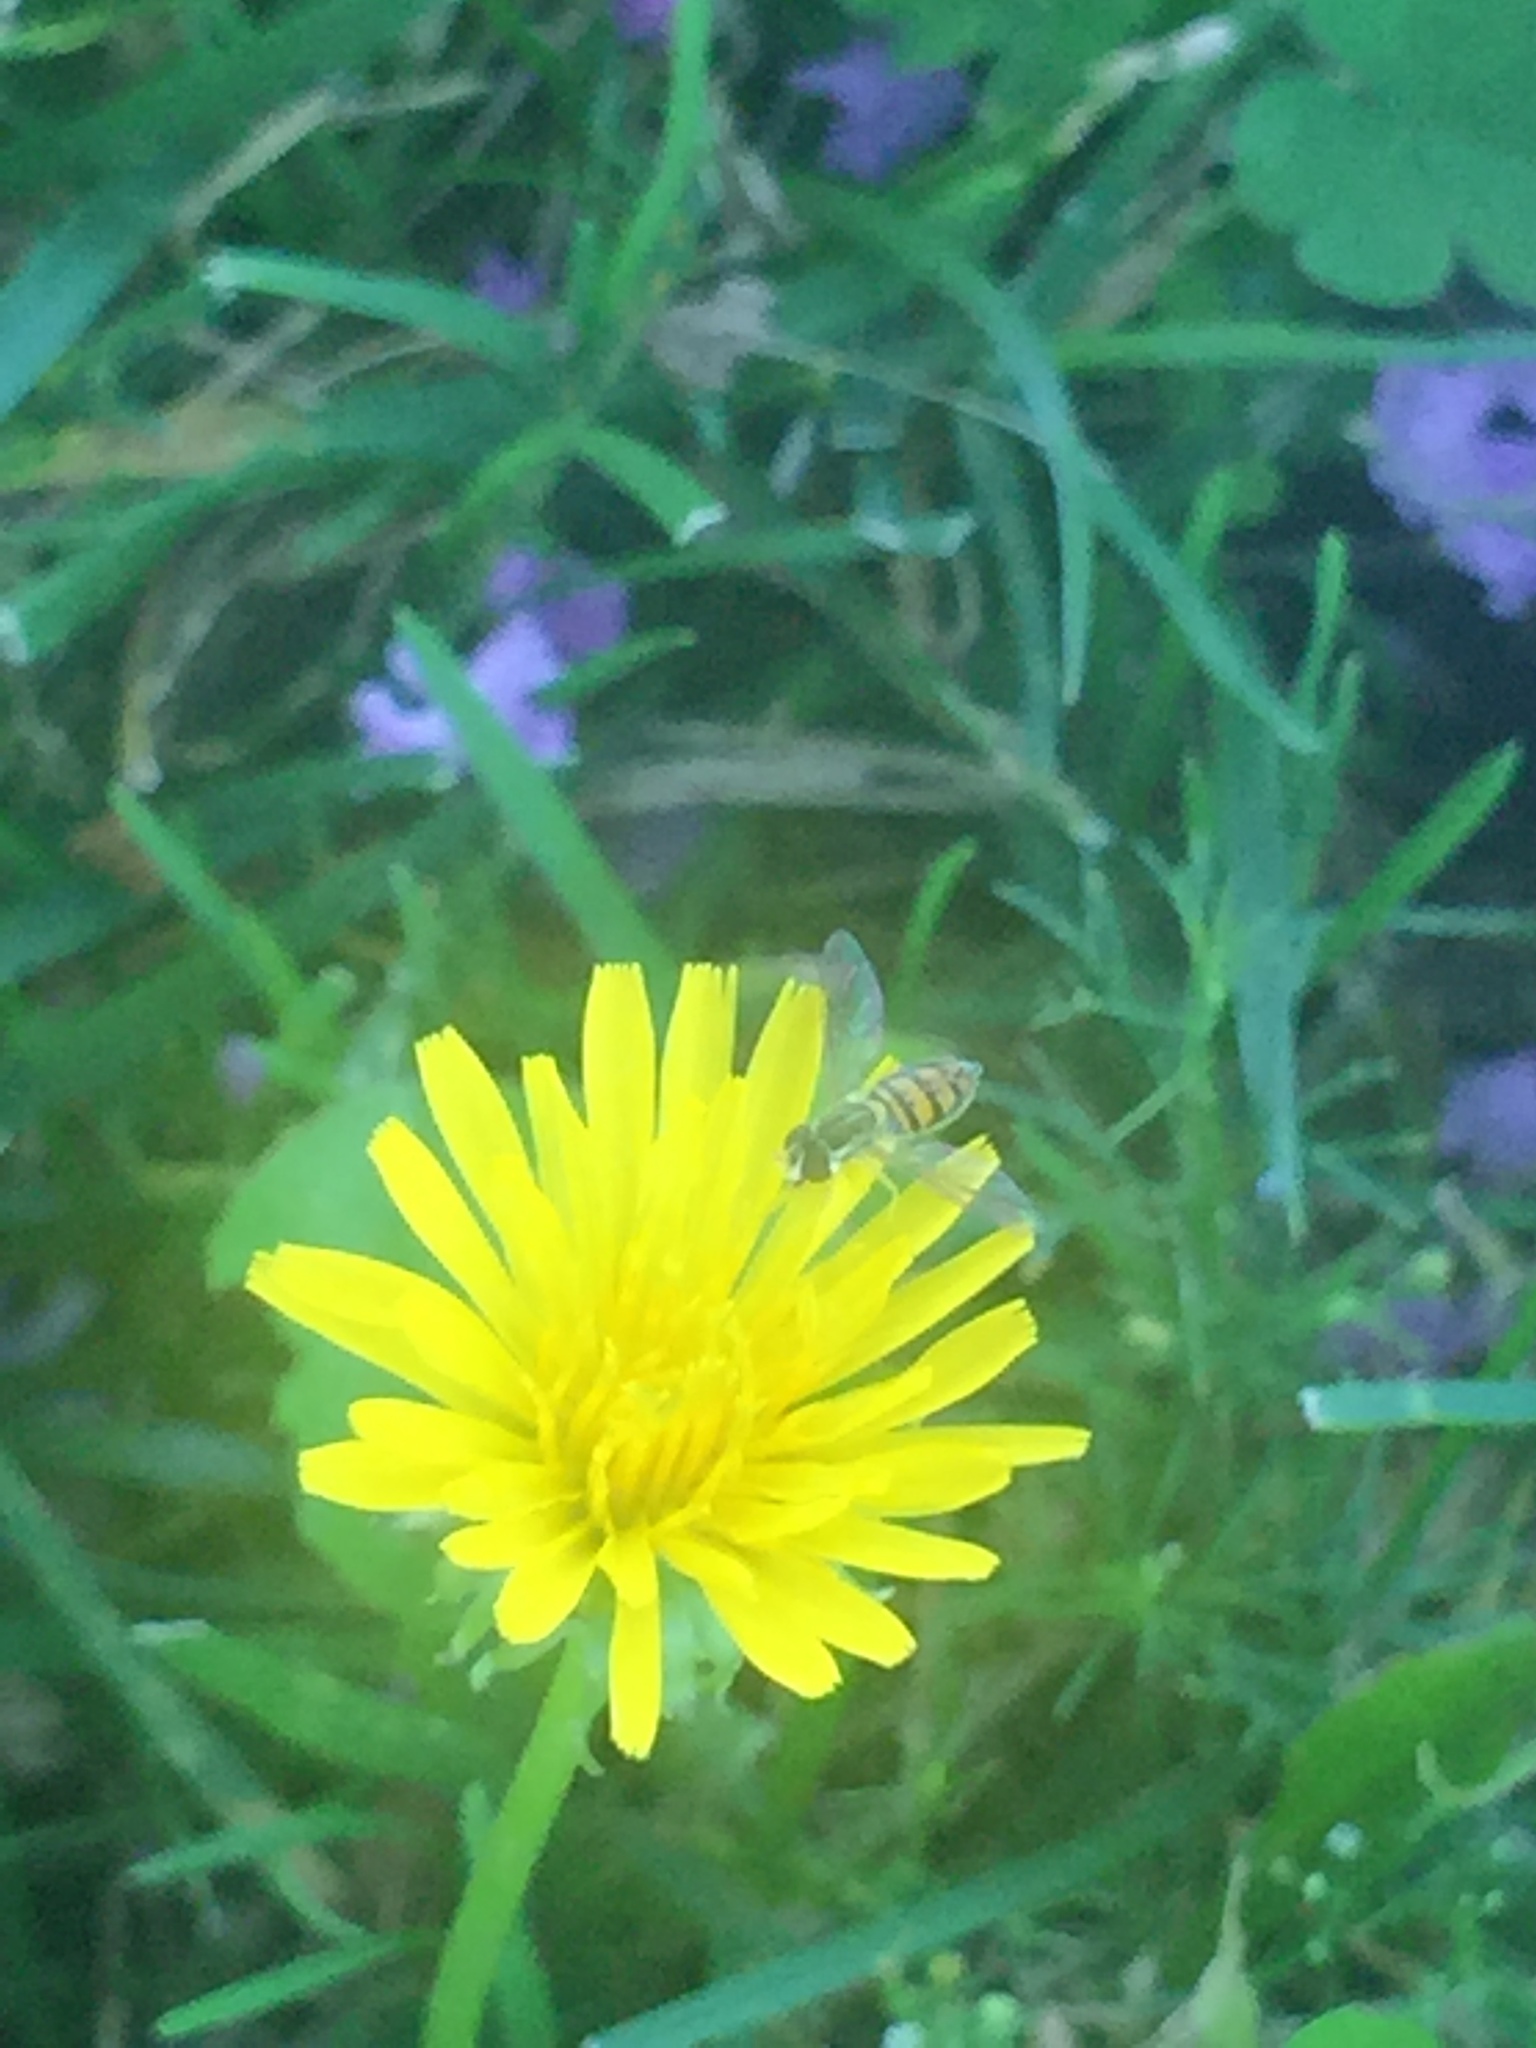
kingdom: Animalia
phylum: Arthropoda
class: Insecta
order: Diptera
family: Syrphidae
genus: Toxomerus
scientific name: Toxomerus marginatus
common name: Syrphid fly
